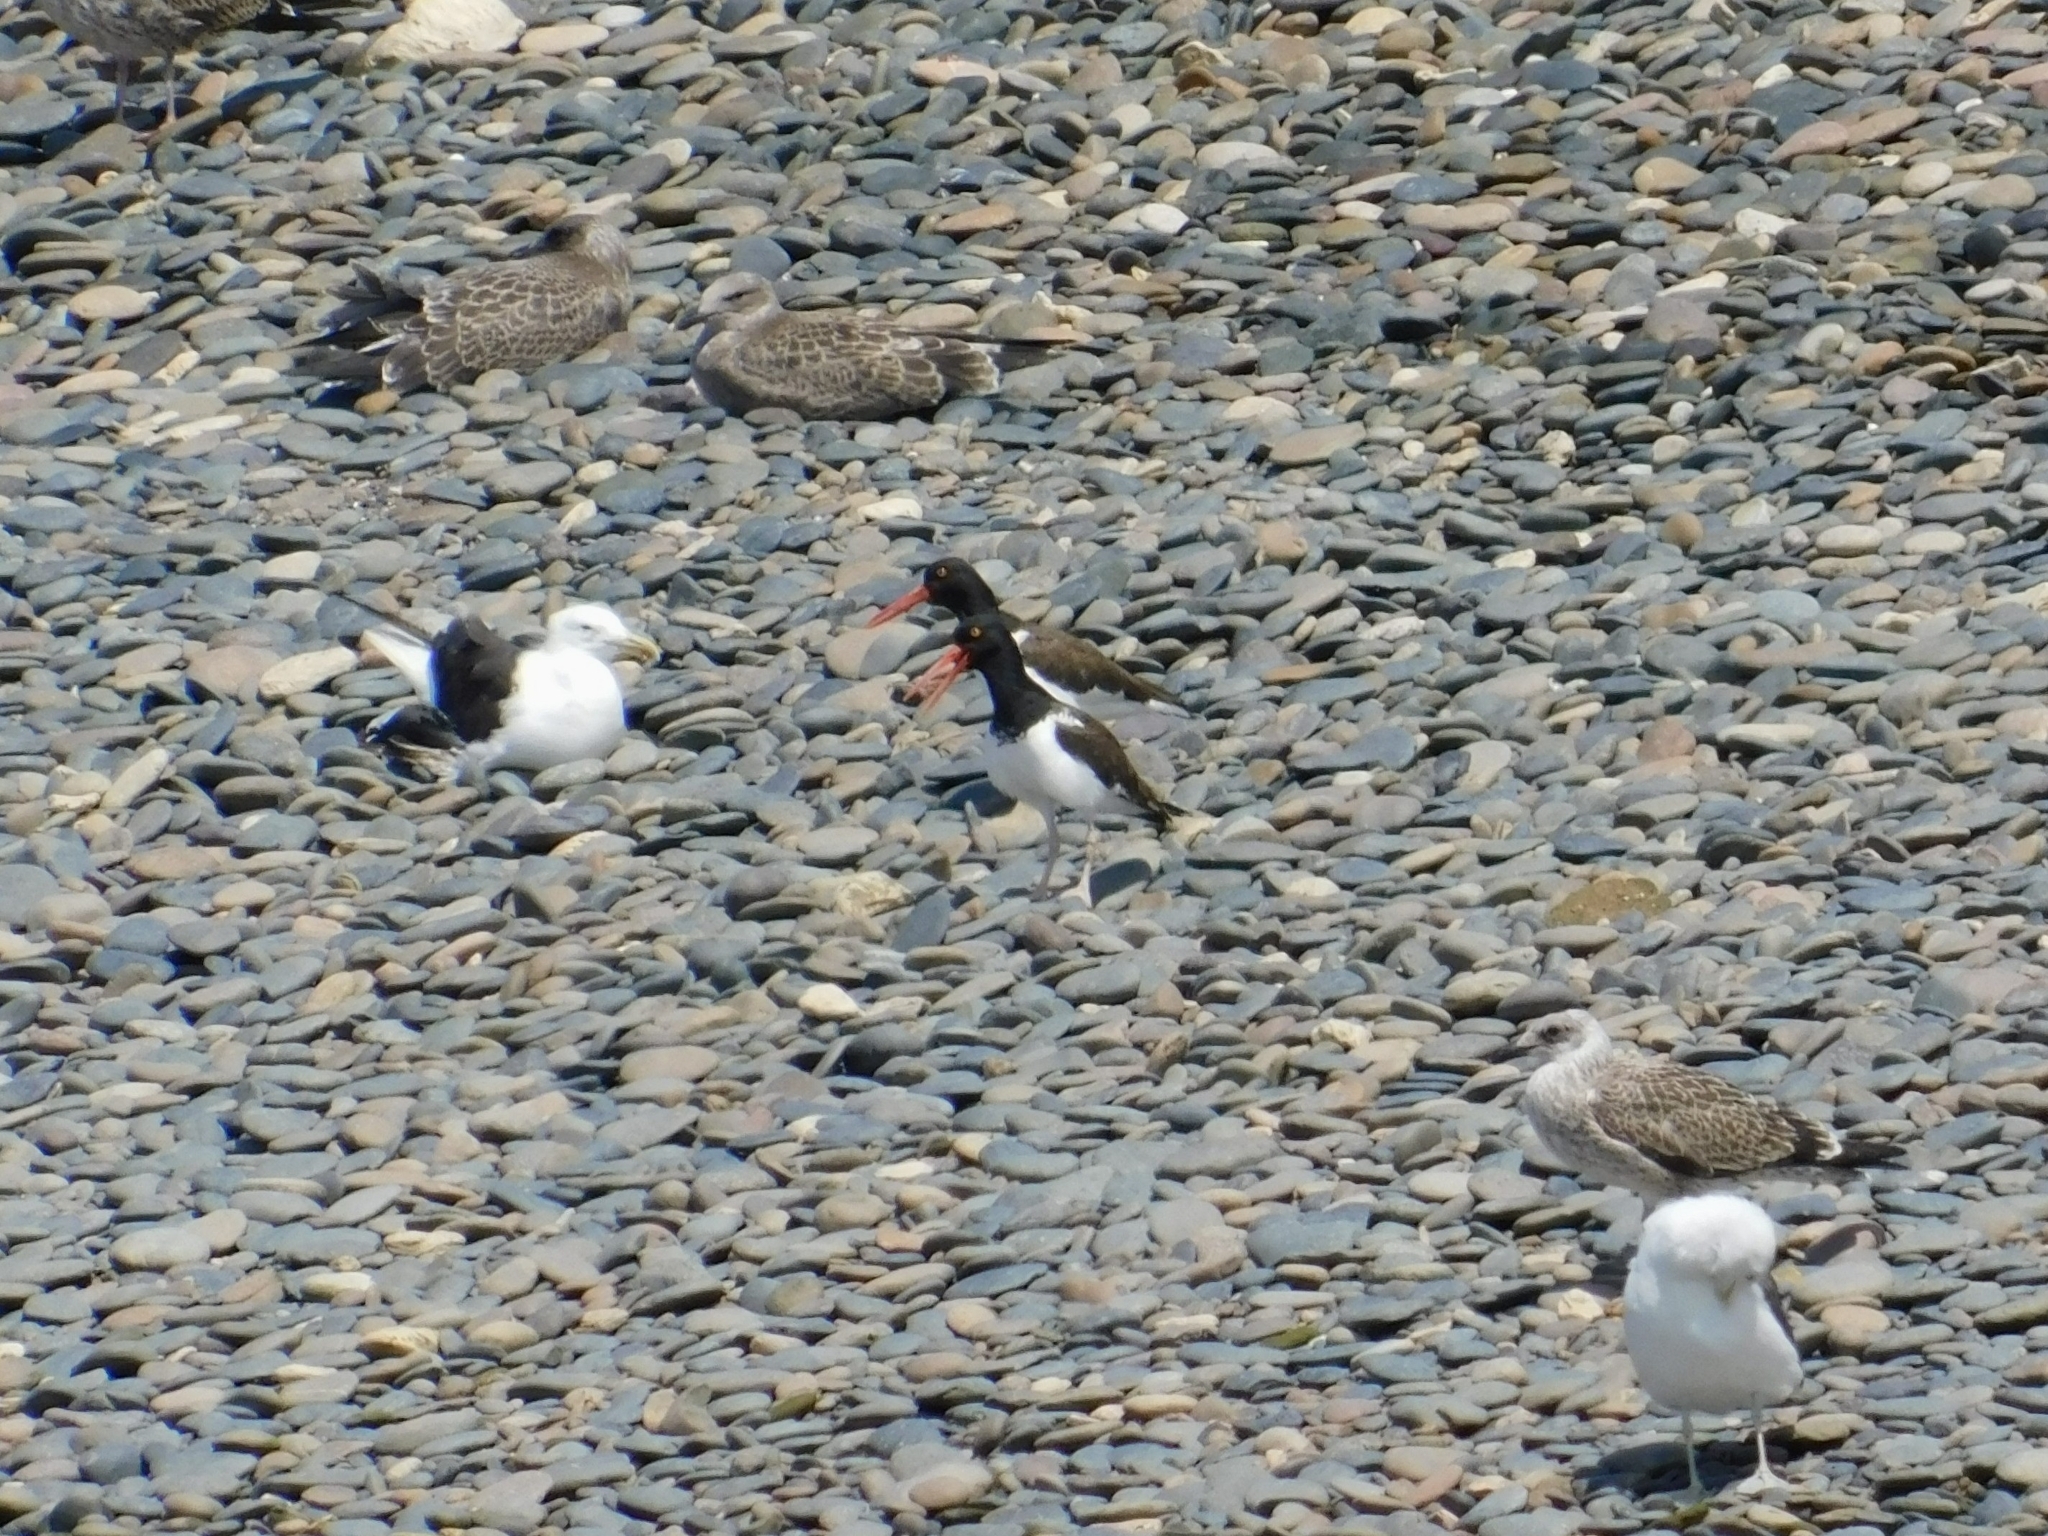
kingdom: Animalia
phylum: Chordata
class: Aves
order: Charadriiformes
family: Haematopodidae
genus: Haematopus
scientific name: Haematopus palliatus
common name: American oystercatcher
